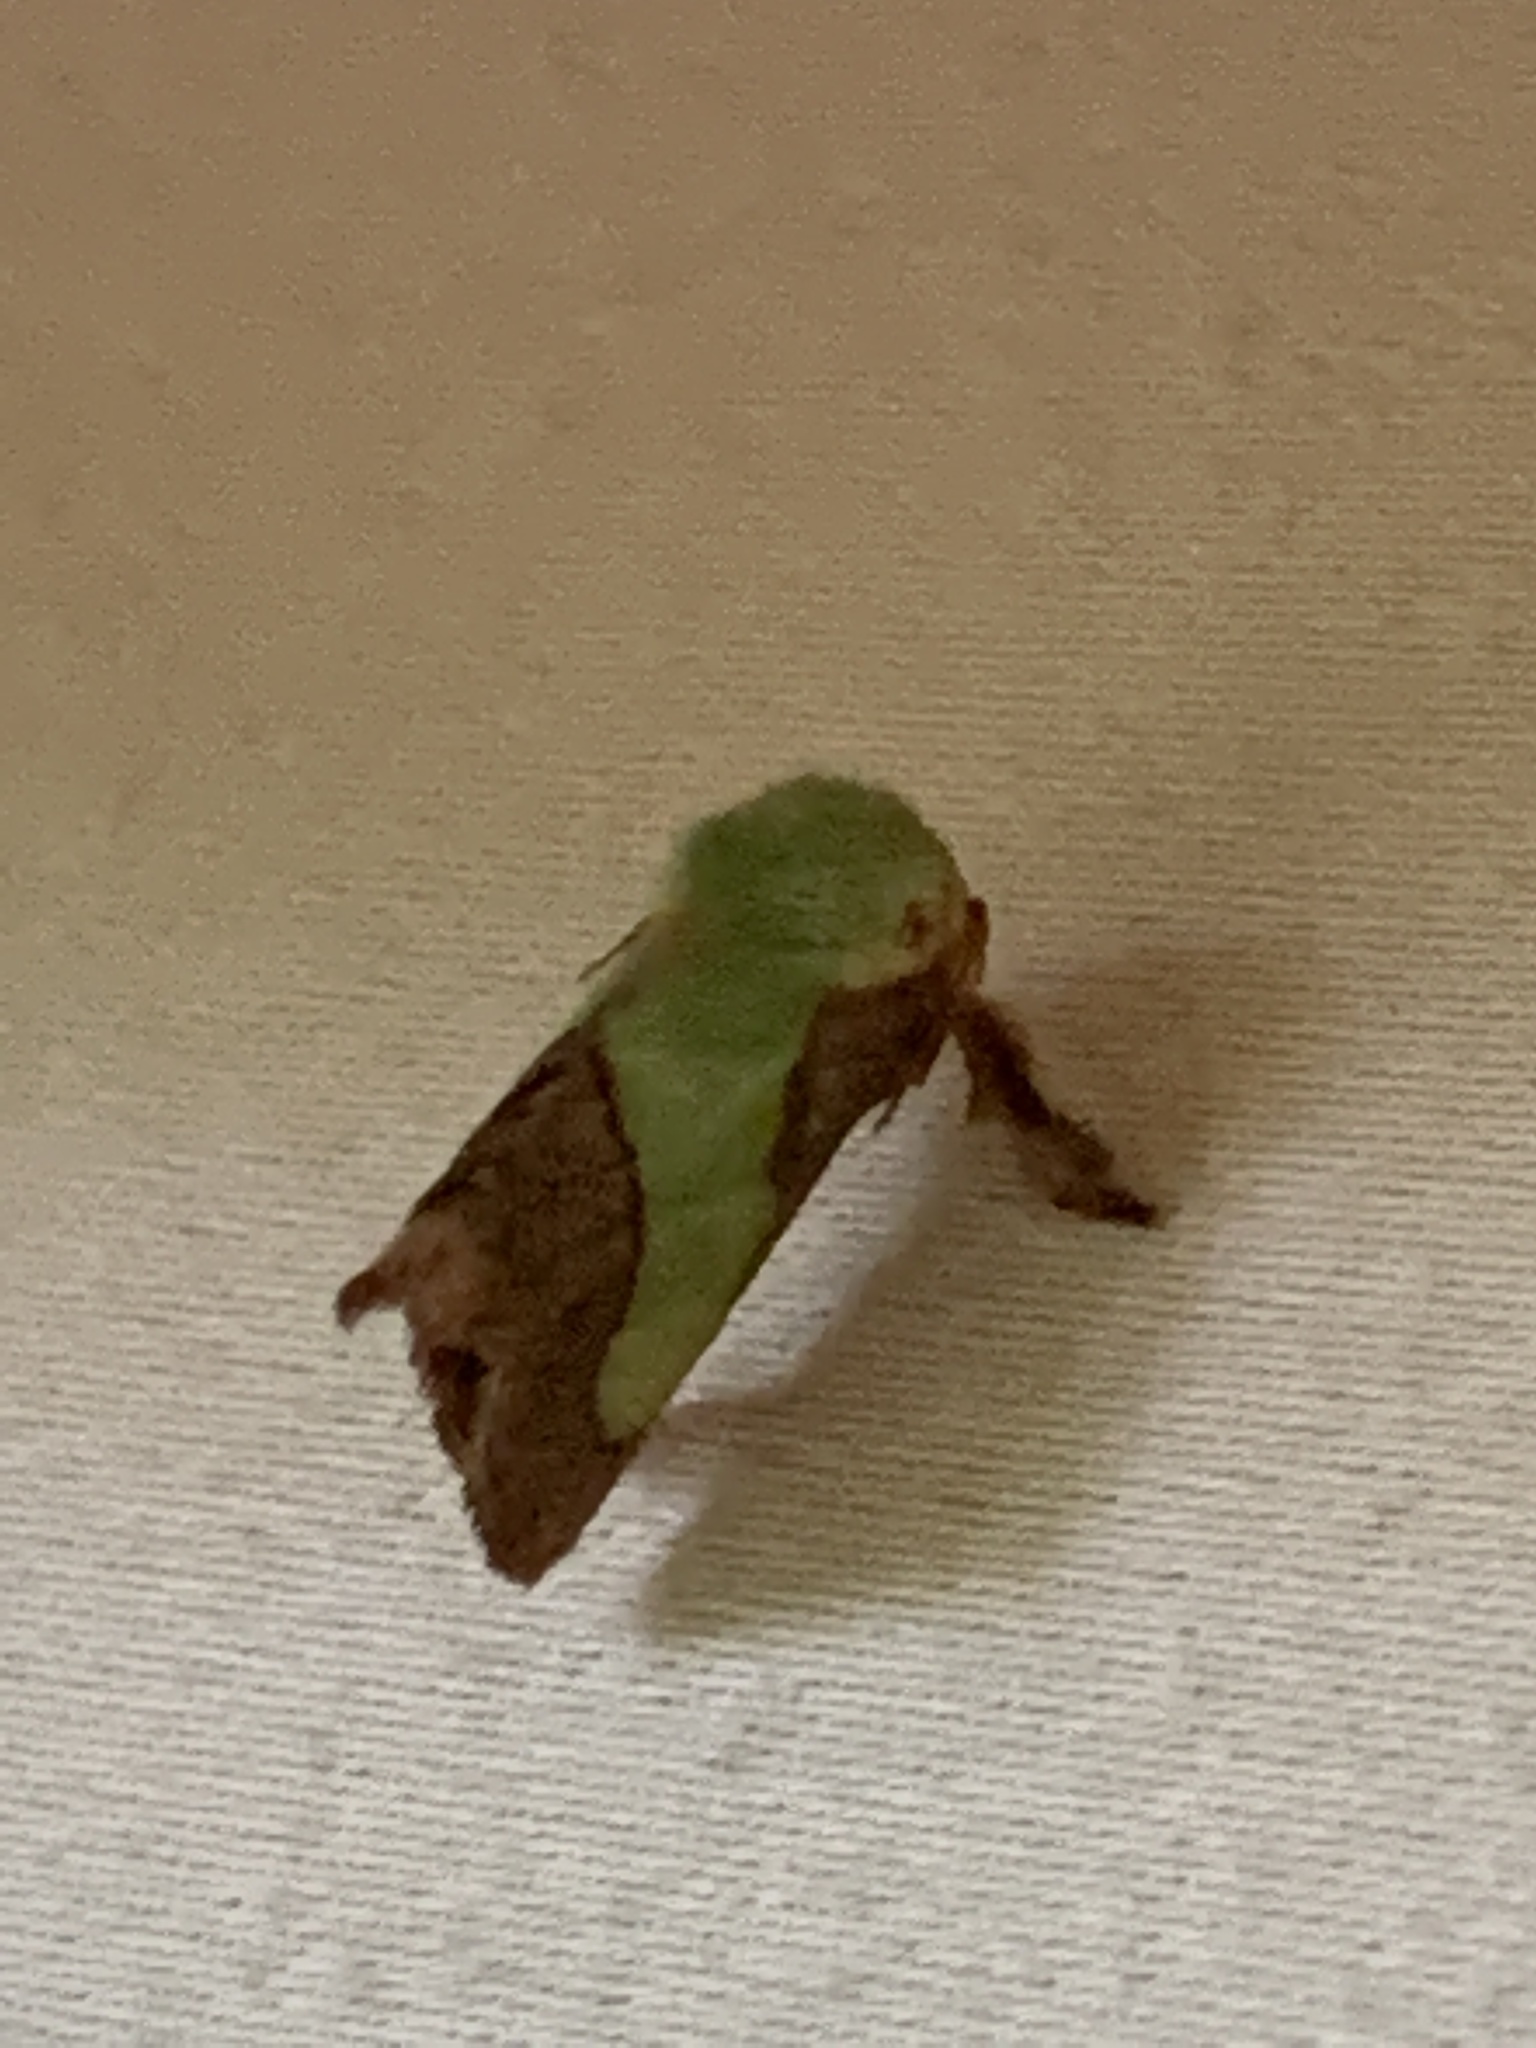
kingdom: Animalia
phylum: Arthropoda
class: Insecta
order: Lepidoptera
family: Limacodidae
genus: Parasa
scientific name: Parasa chloris
